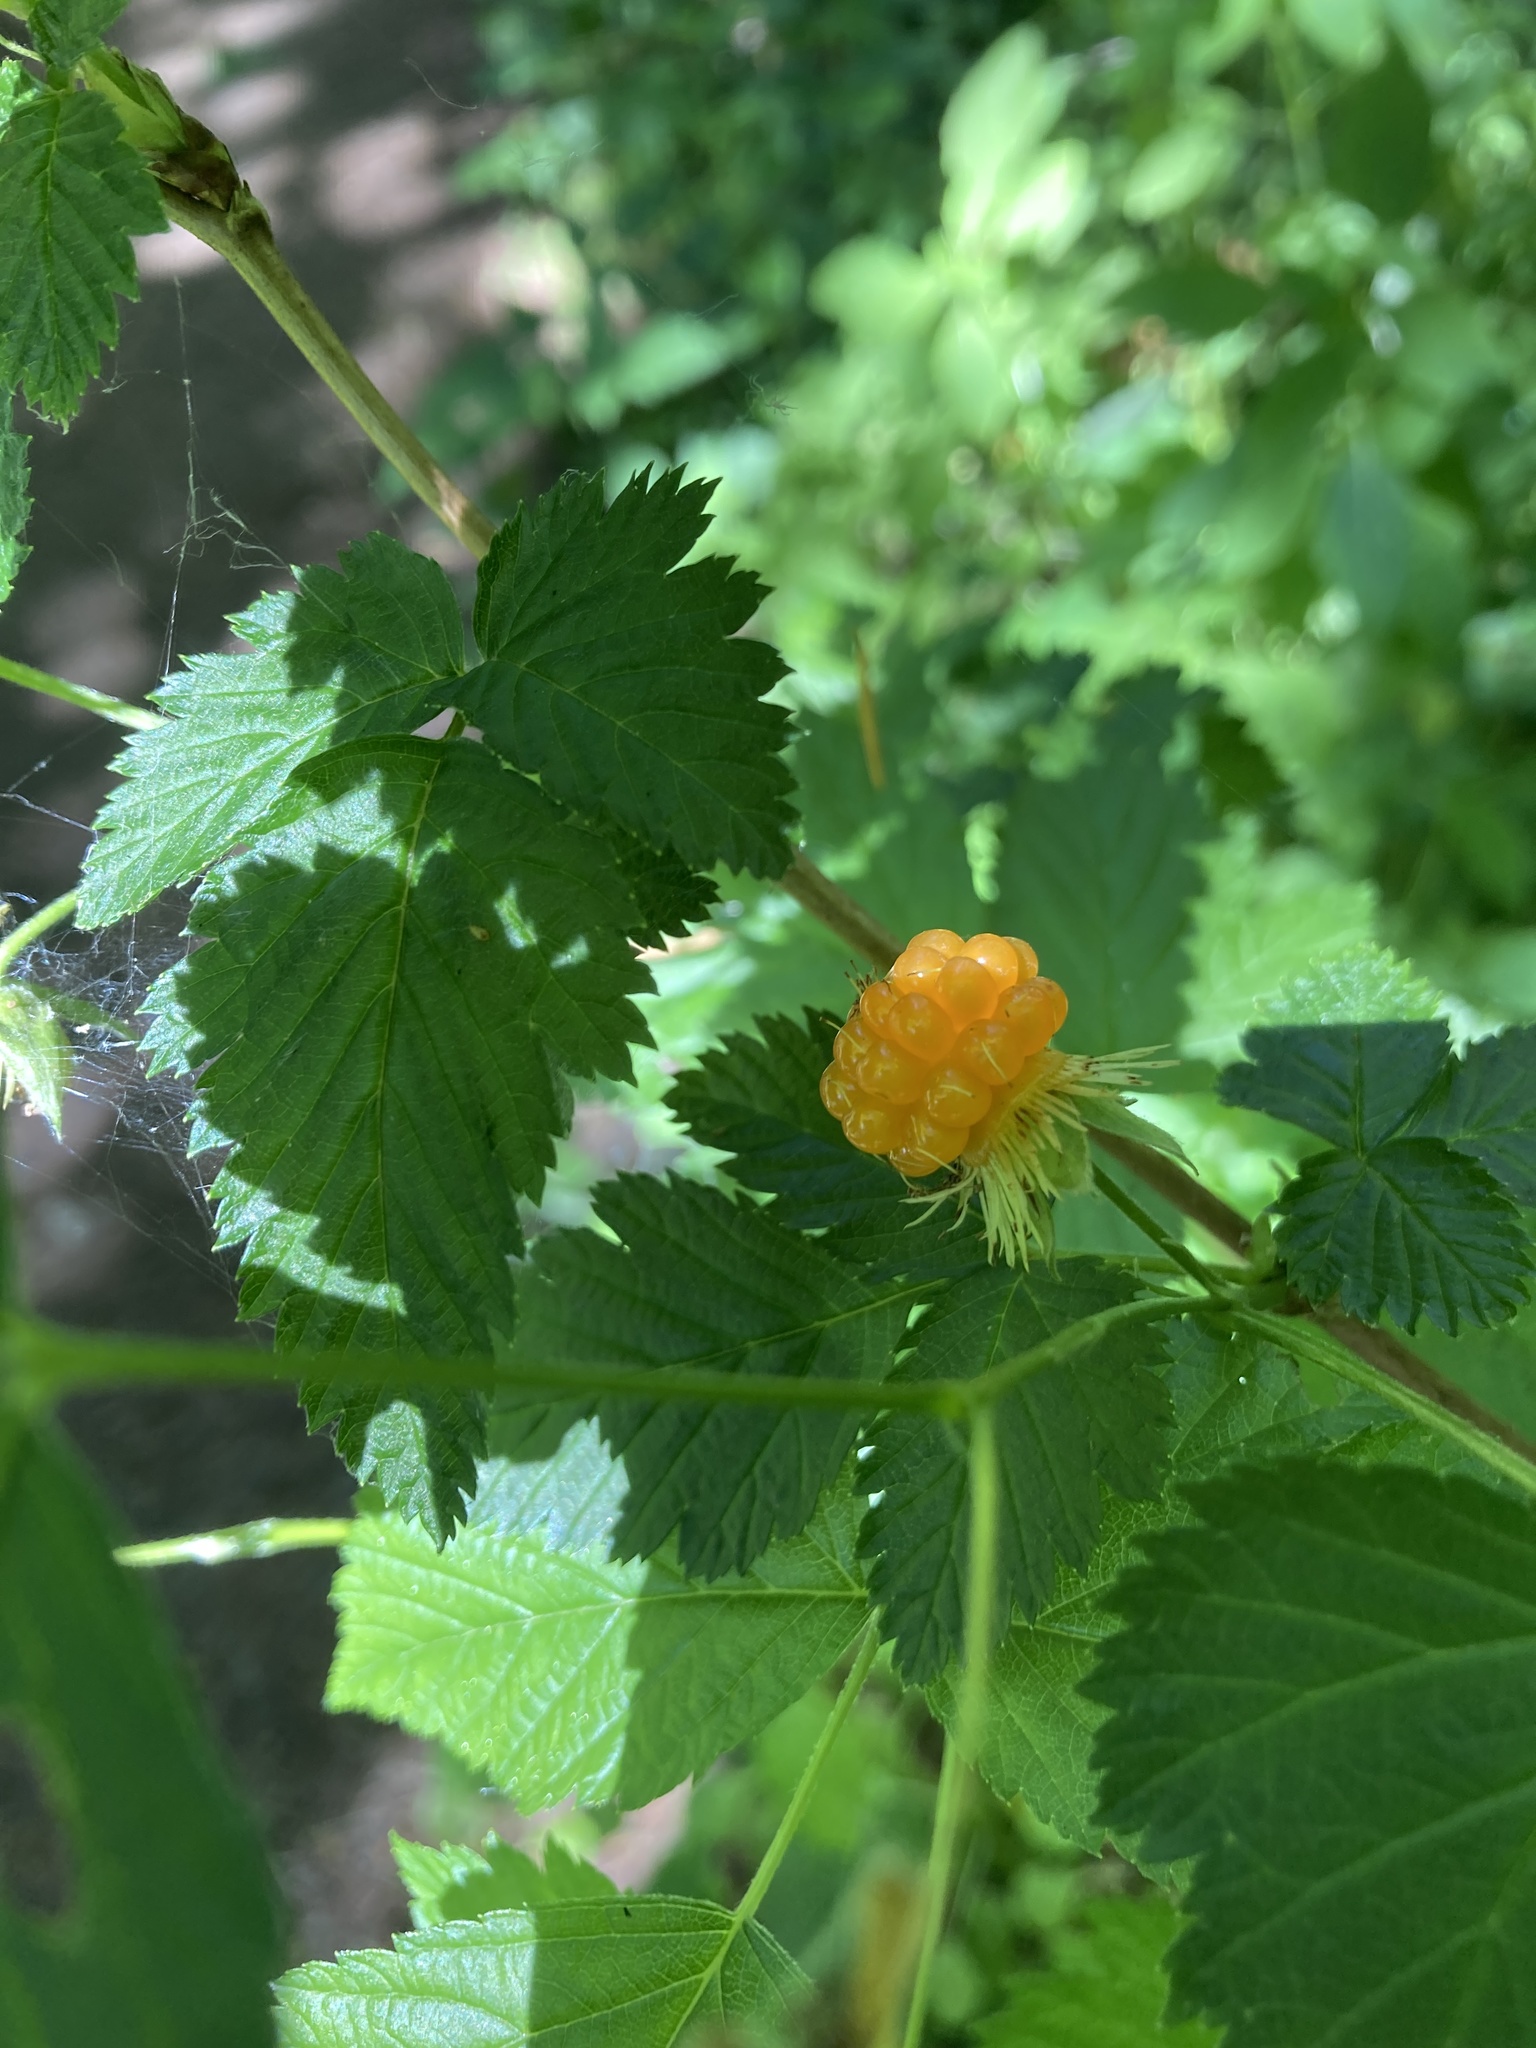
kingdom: Plantae
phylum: Tracheophyta
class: Magnoliopsida
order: Rosales
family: Rosaceae
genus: Rubus
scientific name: Rubus spectabilis
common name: Salmonberry
